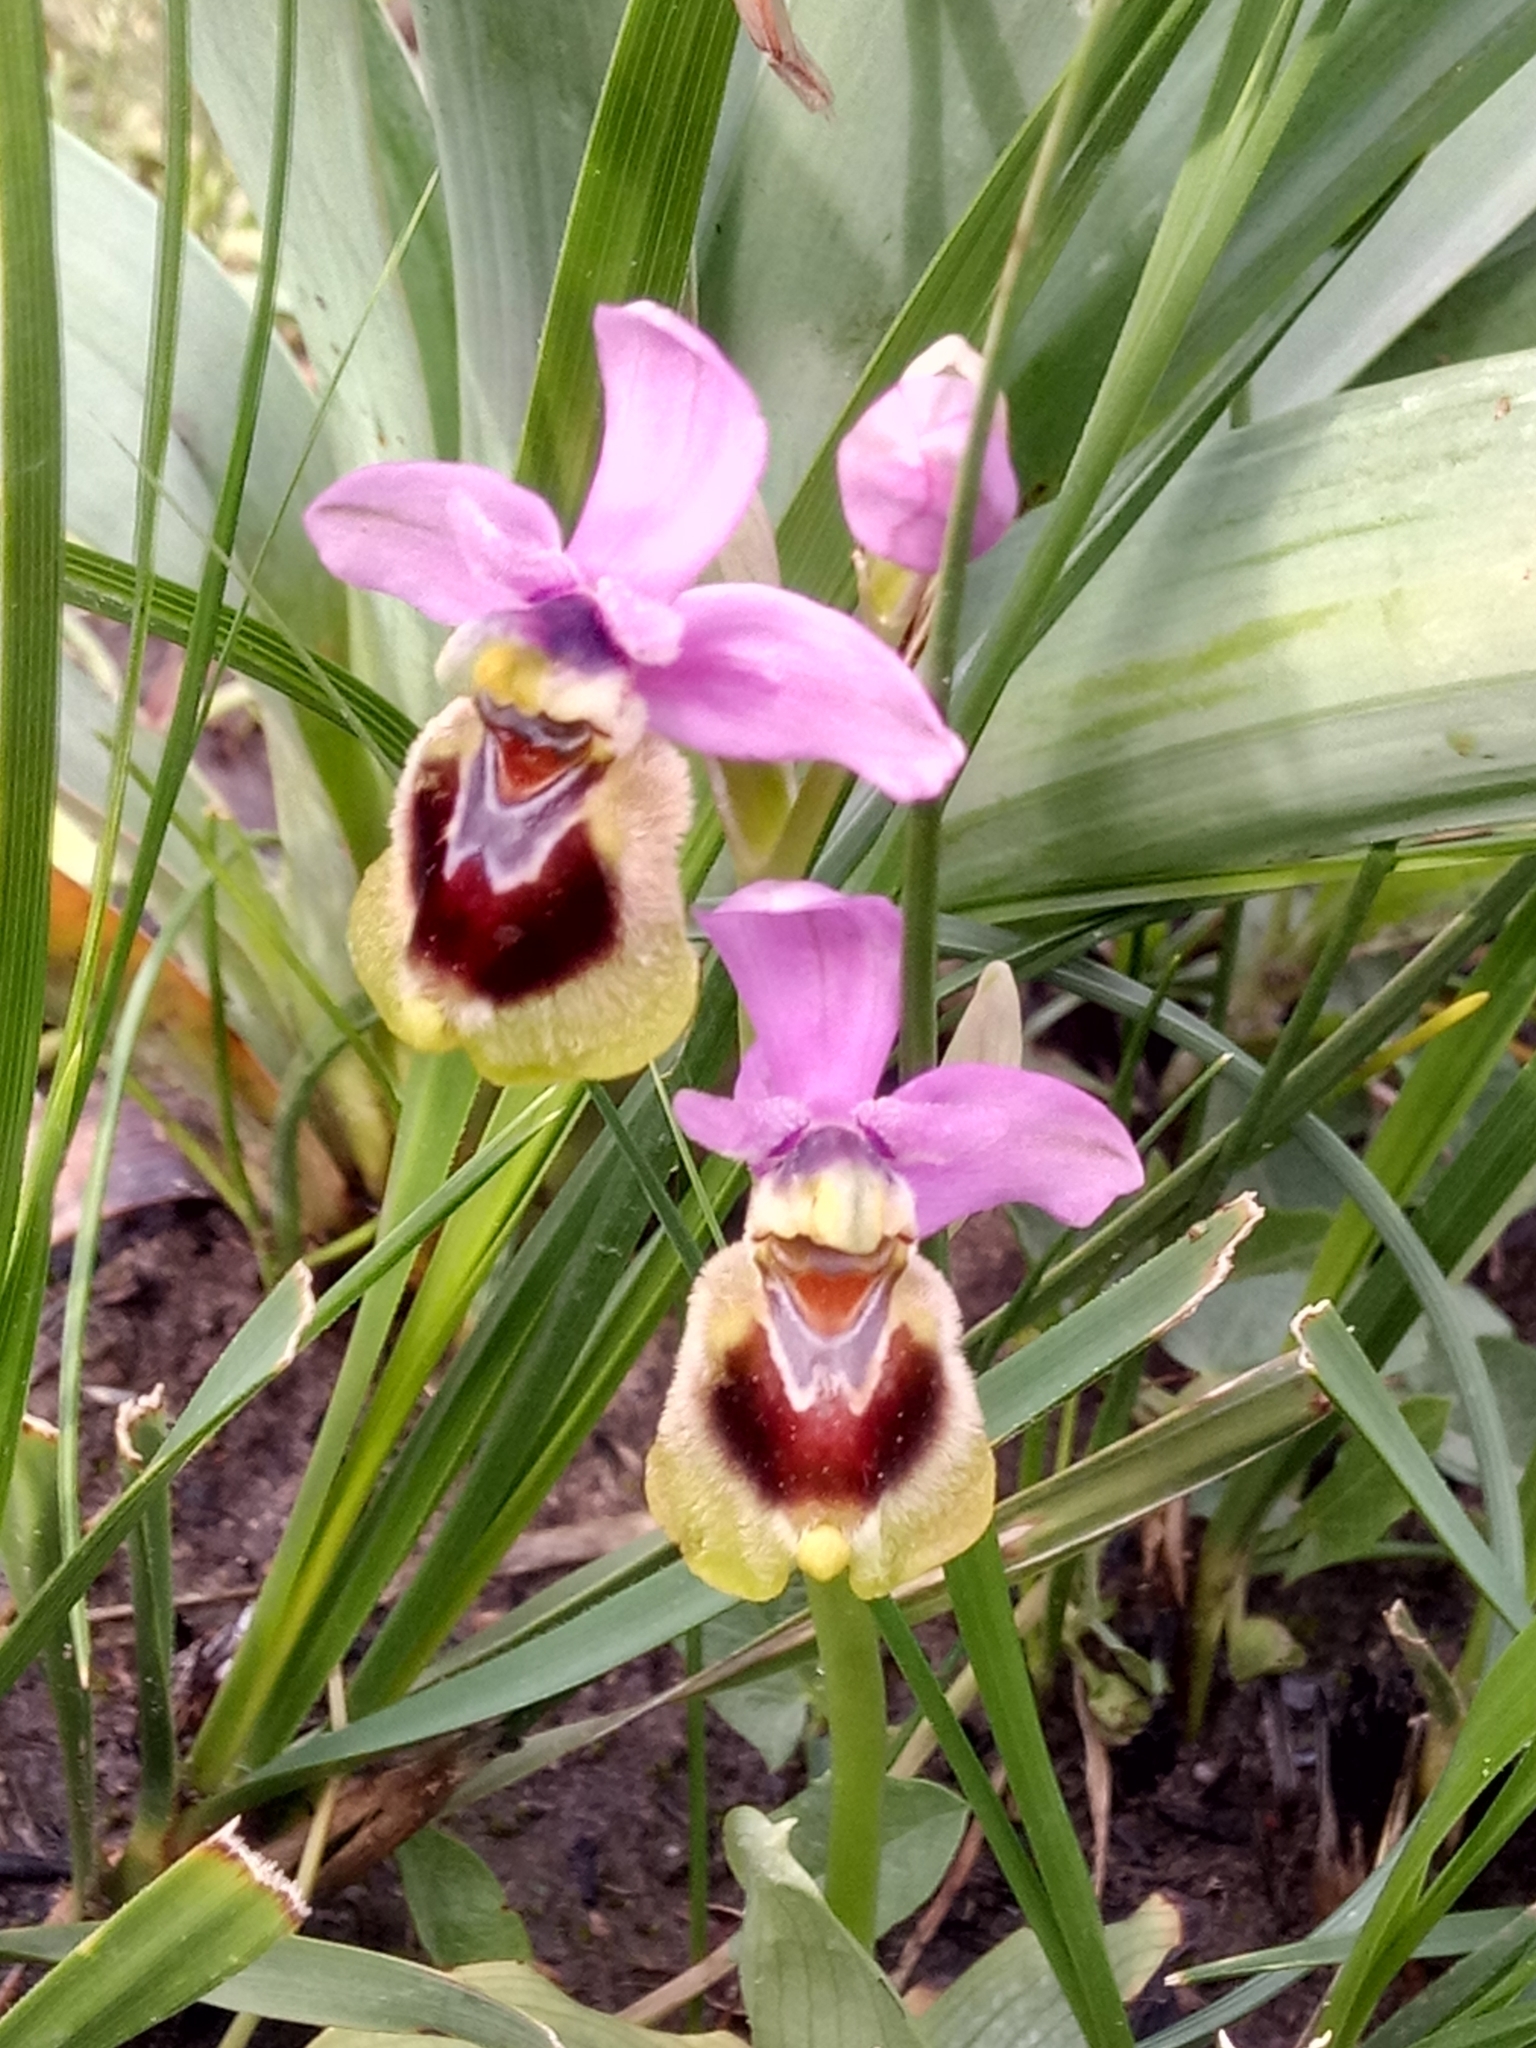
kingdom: Plantae
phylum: Tracheophyta
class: Liliopsida
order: Asparagales
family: Orchidaceae
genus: Ophrys
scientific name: Ophrys tenthredinifera
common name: Sawfly orchid
